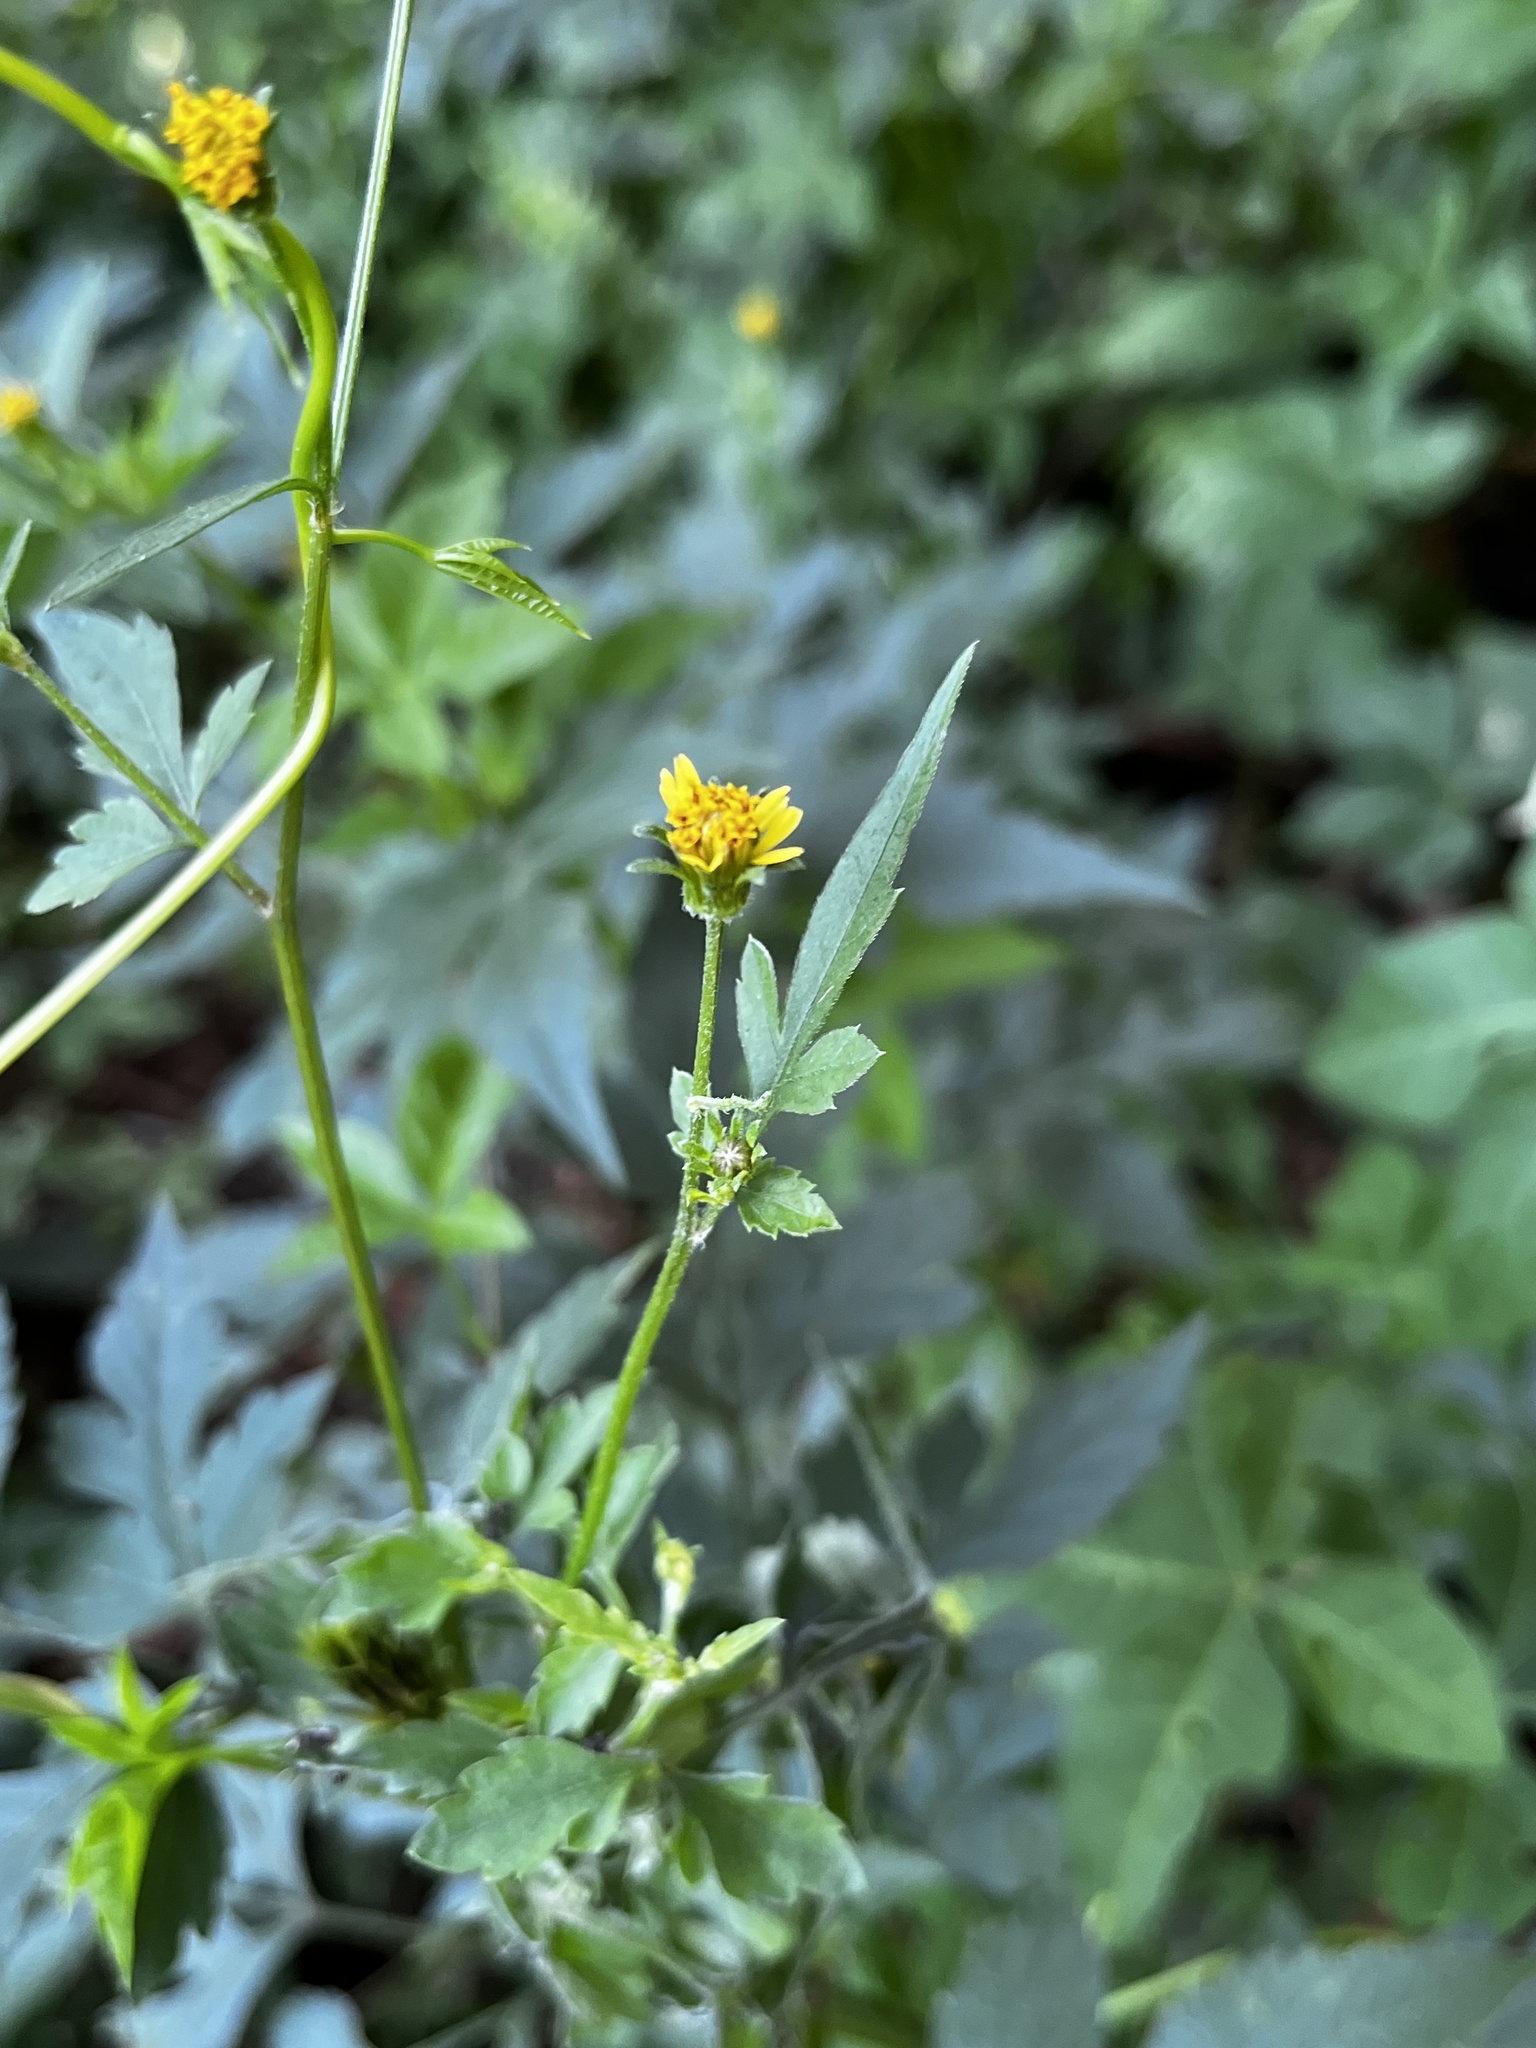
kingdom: Plantae
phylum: Tracheophyta
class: Magnoliopsida
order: Asterales
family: Asteraceae
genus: Bidens
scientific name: Bidens bipinnata
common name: Spanish-needles
